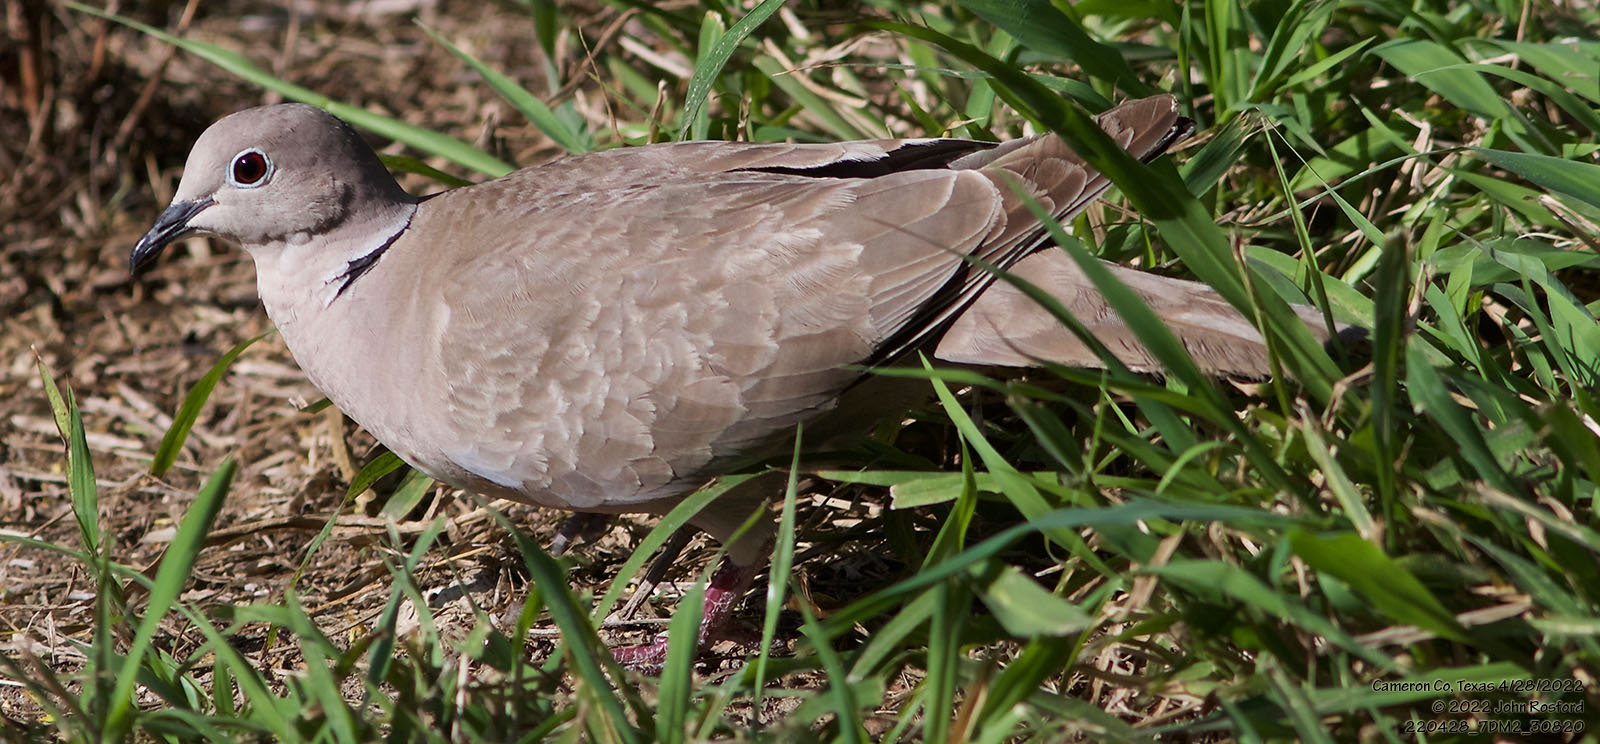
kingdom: Animalia
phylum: Chordata
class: Aves
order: Columbiformes
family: Columbidae
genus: Streptopelia
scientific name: Streptopelia decaocto
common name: Eurasian collared dove
